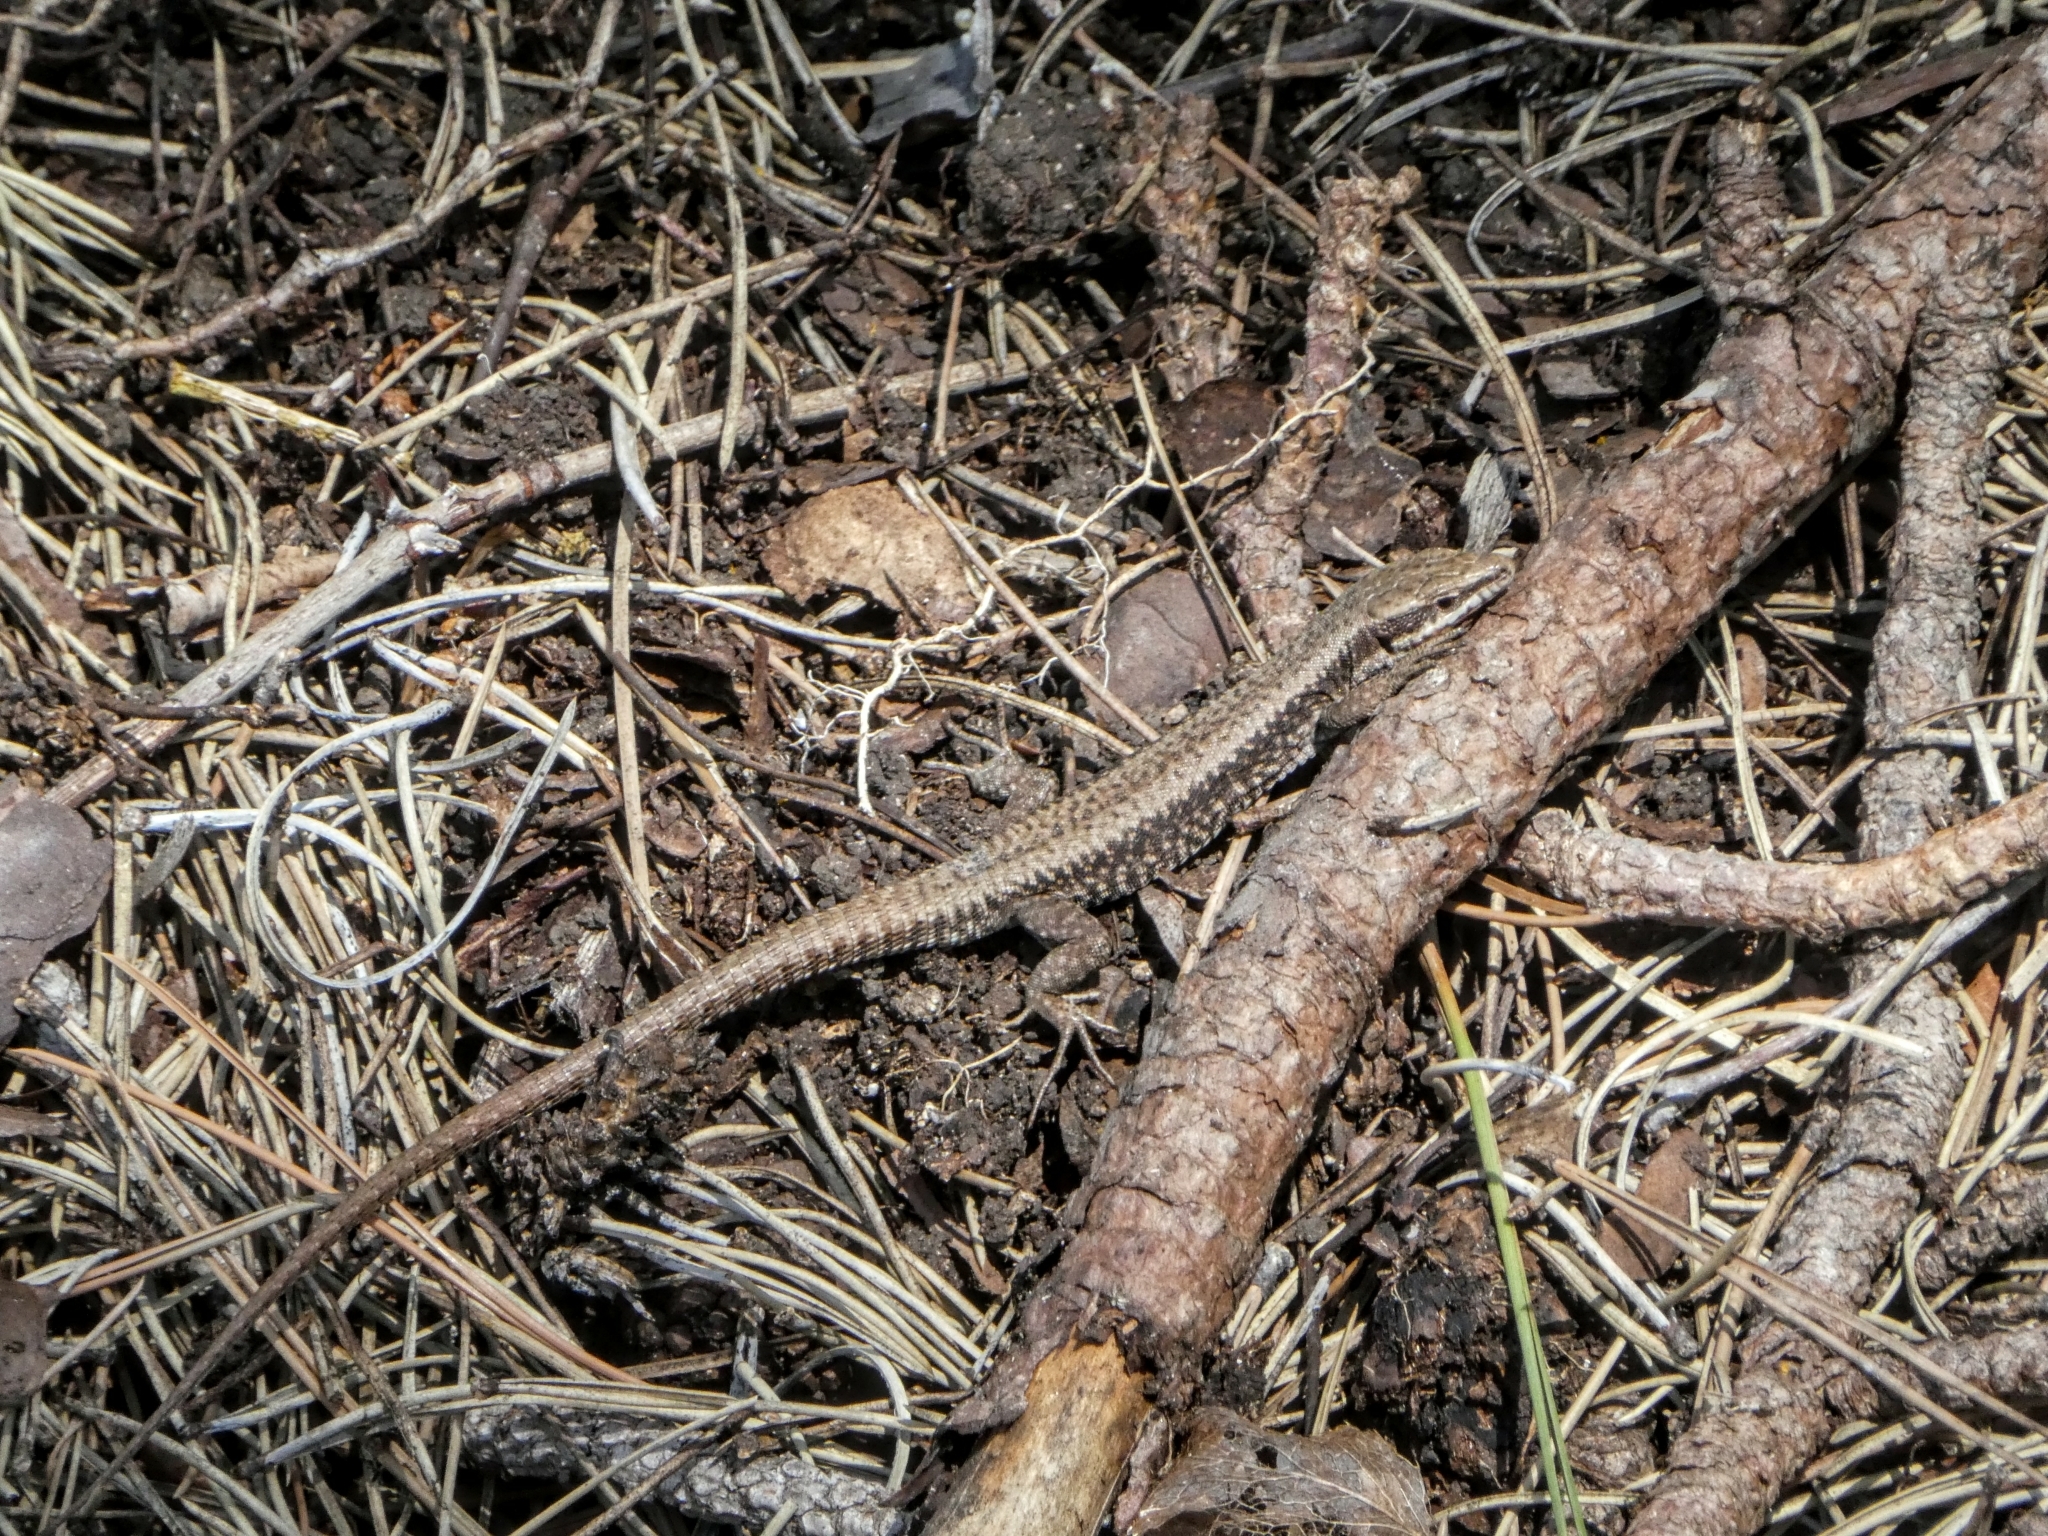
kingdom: Animalia
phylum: Chordata
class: Squamata
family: Lacertidae
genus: Podarcis
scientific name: Podarcis muralis
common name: Common wall lizard
